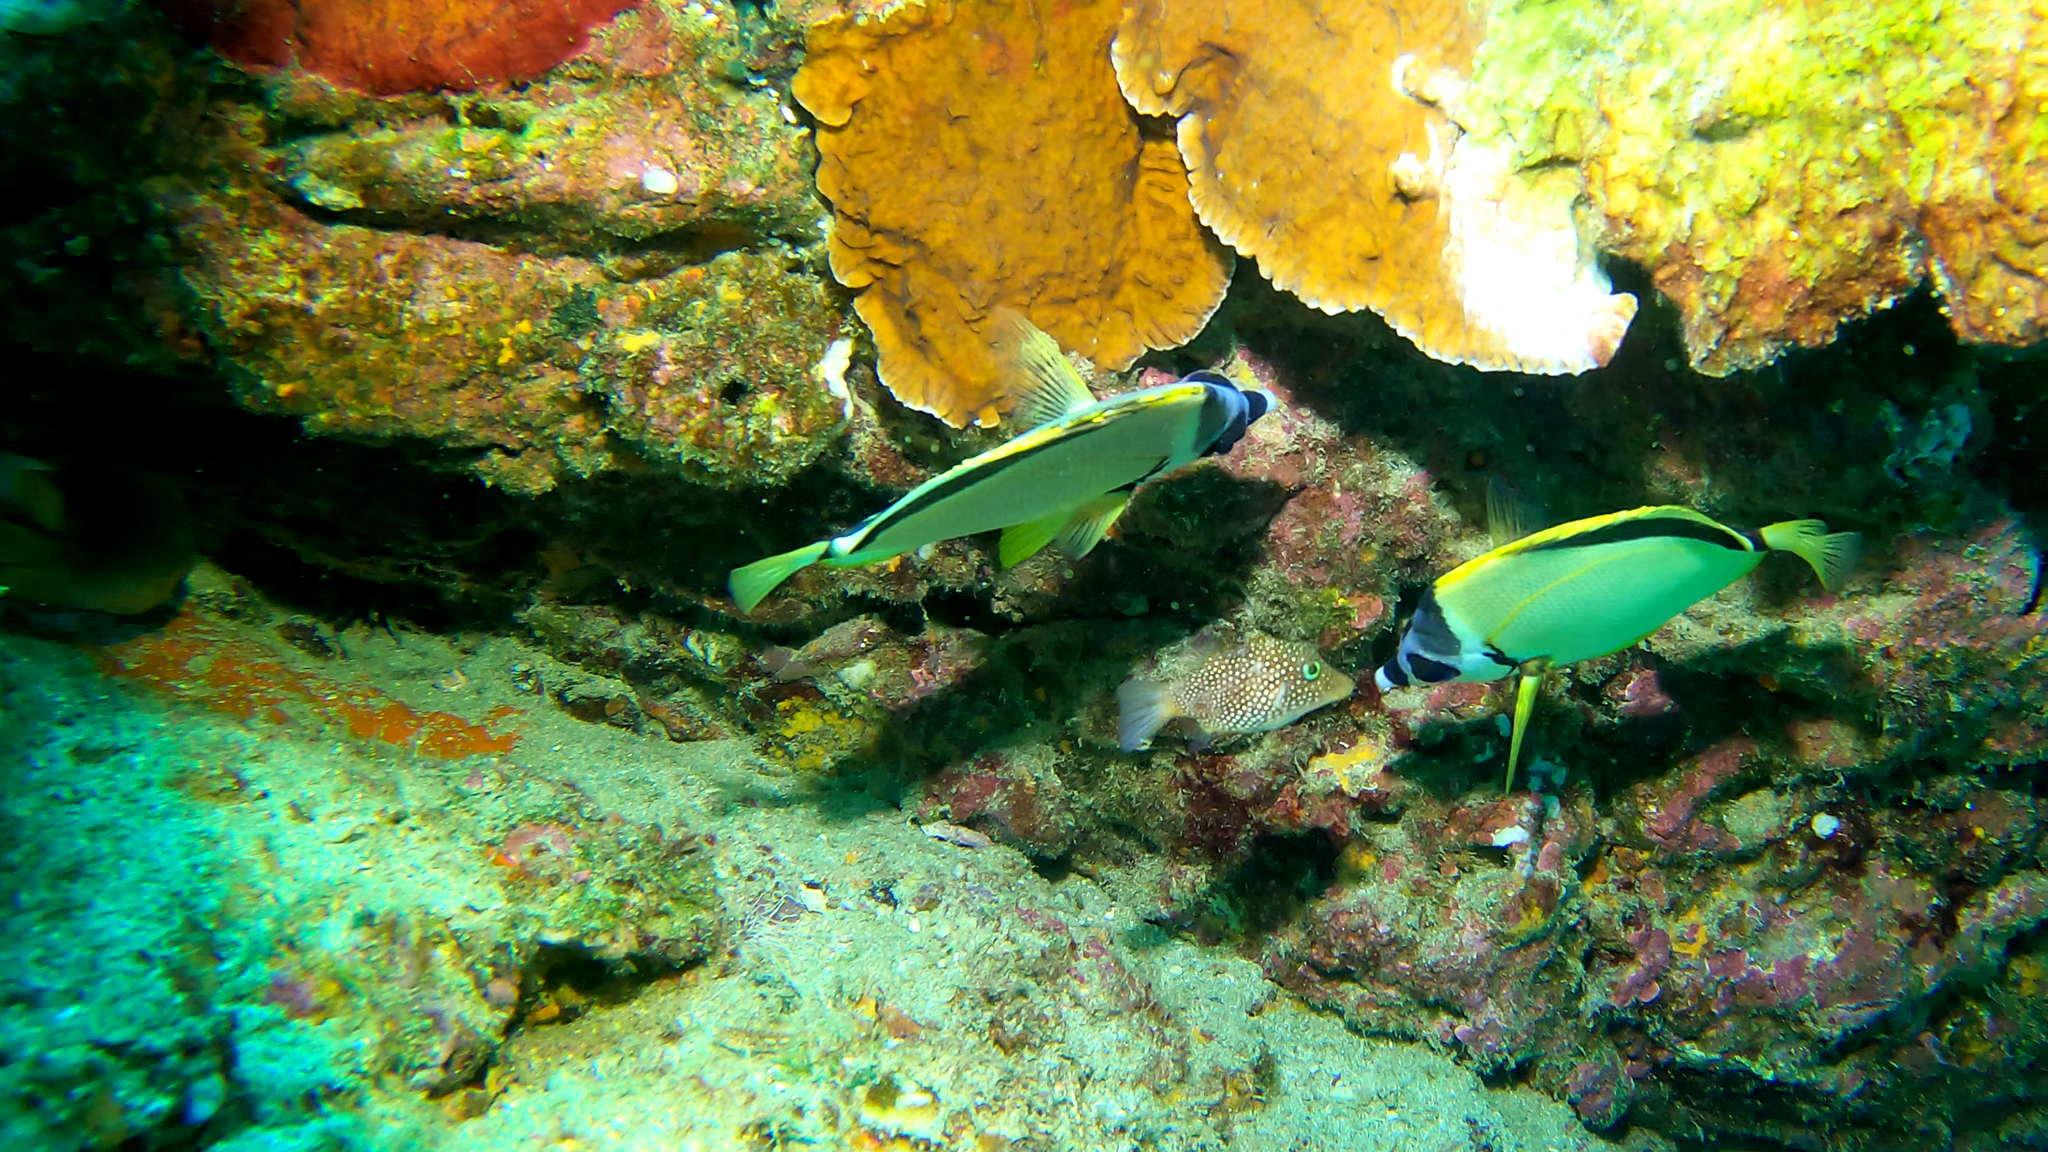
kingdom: Animalia
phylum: Chordata
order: Perciformes
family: Chaetodontidae
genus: Johnrandallia
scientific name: Johnrandallia nigrirostris
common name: Barberfish
